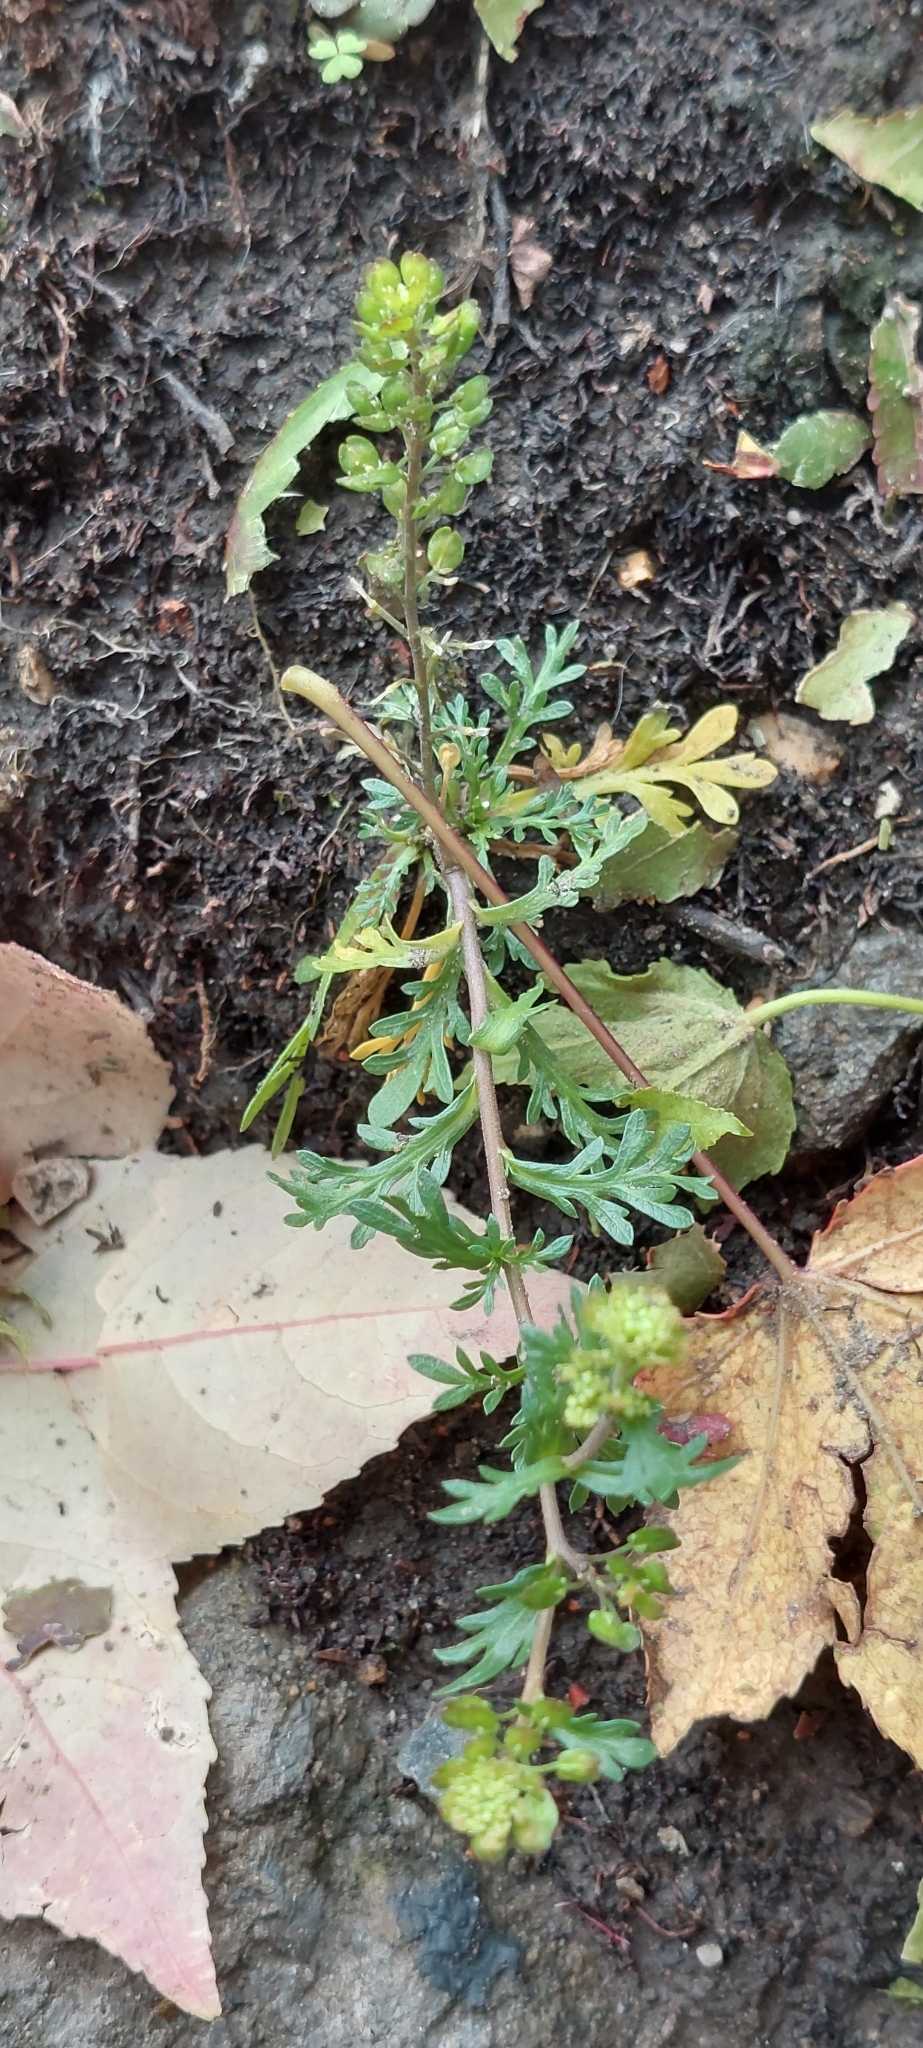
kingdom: Plantae
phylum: Tracheophyta
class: Magnoliopsida
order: Brassicales
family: Brassicaceae
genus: Lepidium
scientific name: Lepidium bipinnatifidum
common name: Wayside pepperwort
